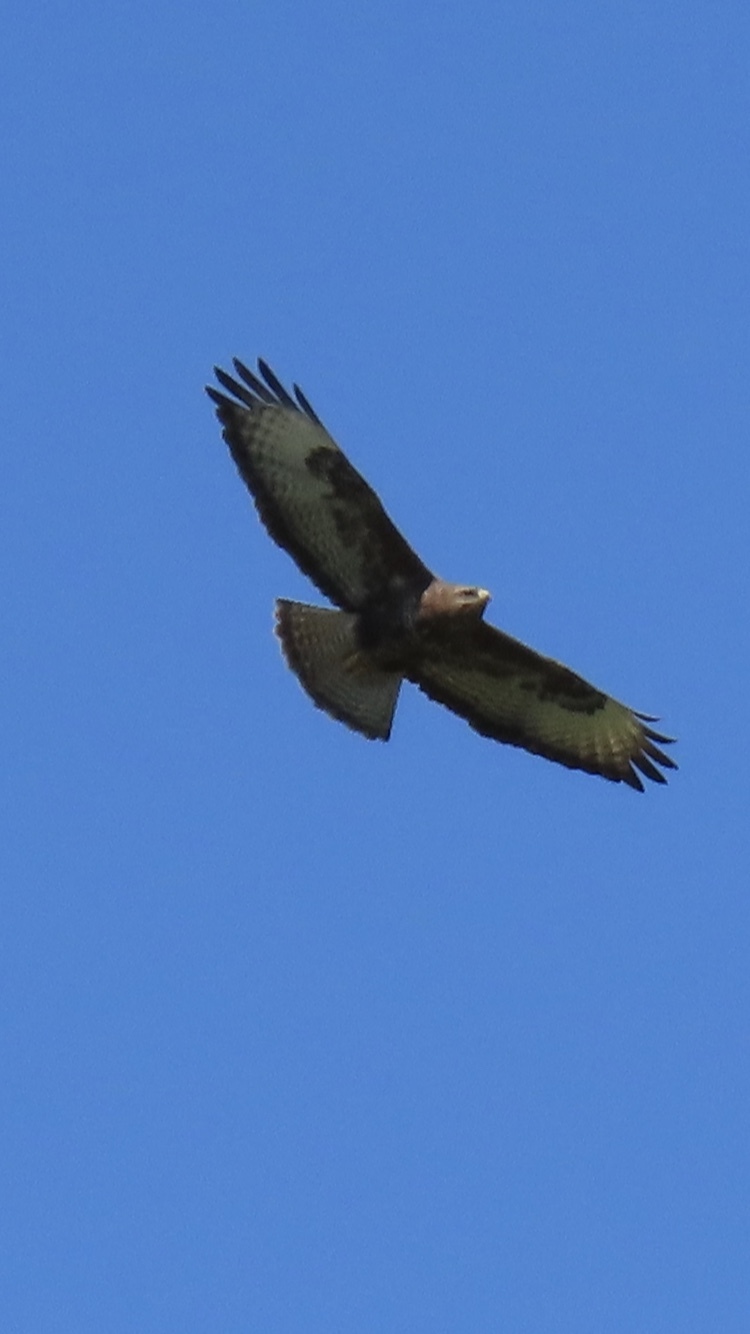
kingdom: Animalia
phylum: Chordata
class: Aves
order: Accipitriformes
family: Accipitridae
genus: Buteo
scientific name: Buteo buteo
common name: Common buzzard
